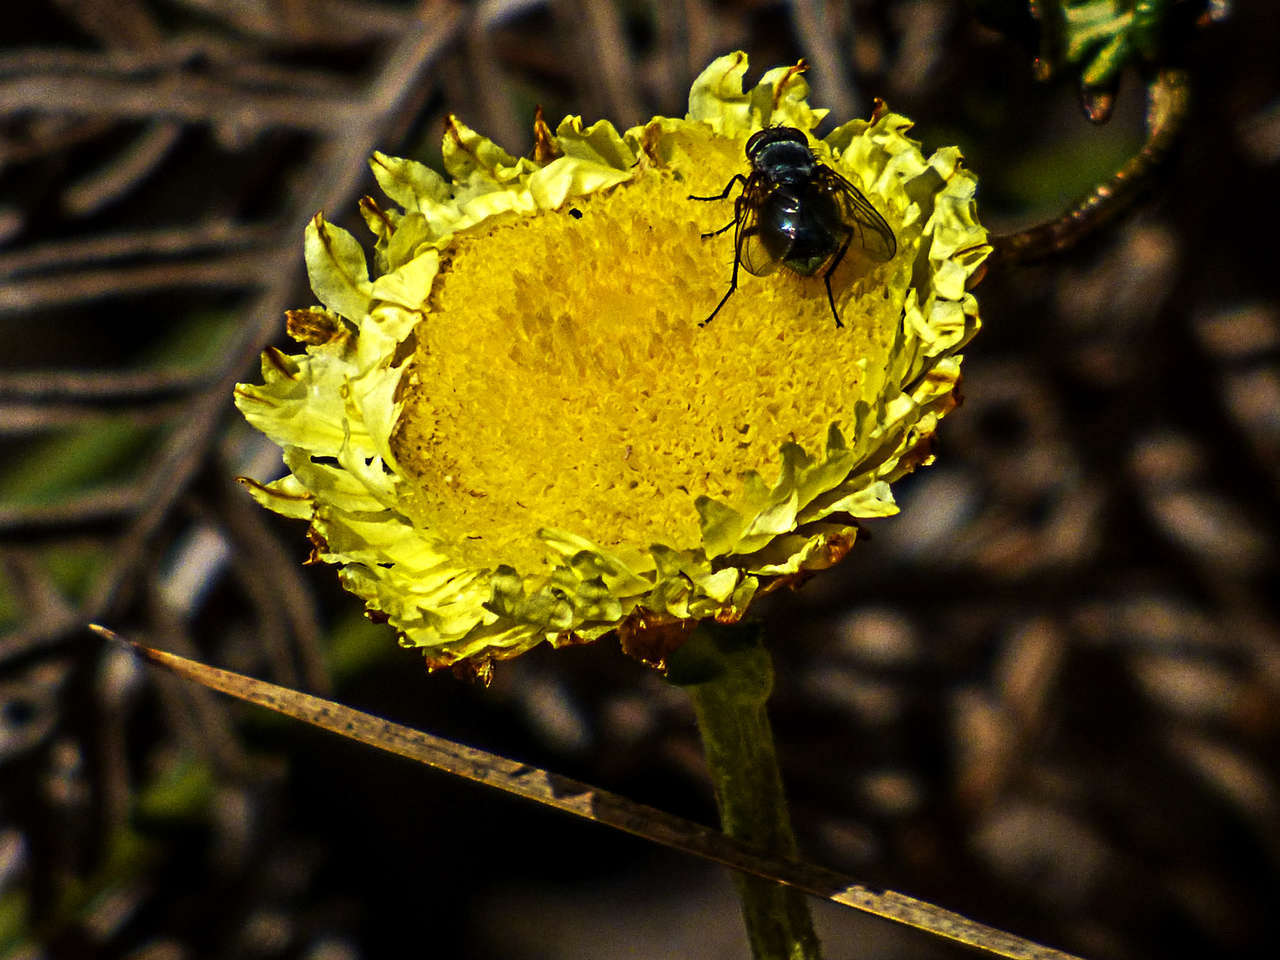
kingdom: Plantae
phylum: Tracheophyta
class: Magnoliopsida
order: Asterales
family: Asteraceae
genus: Coronidium
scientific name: Coronidium scorpioides
